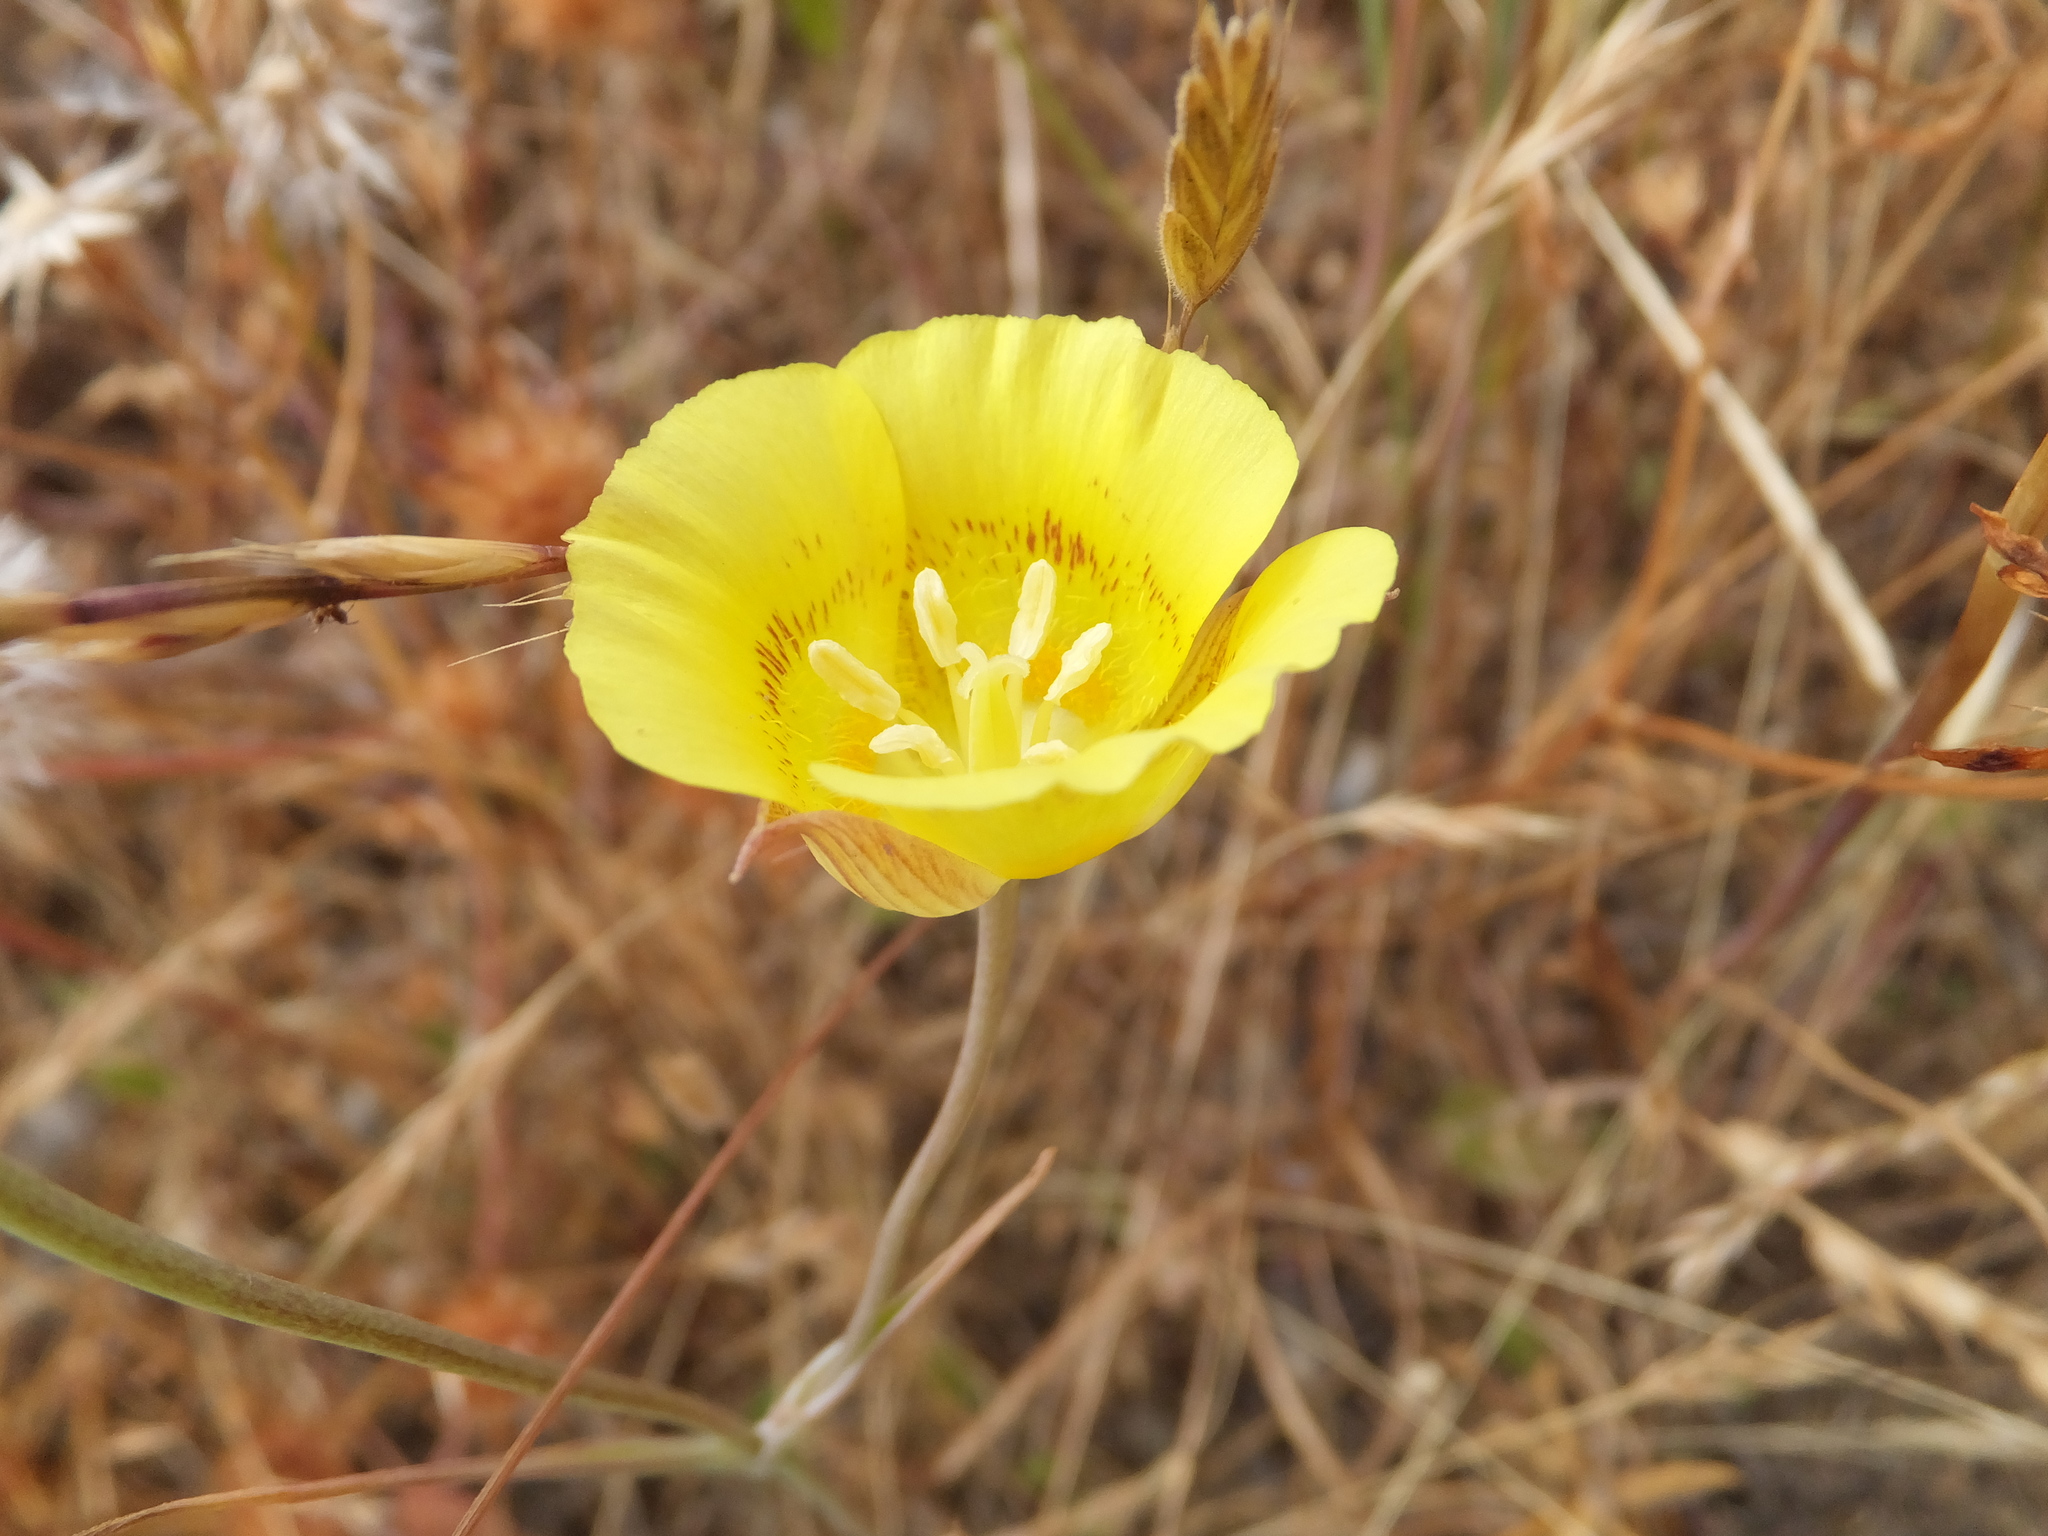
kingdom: Plantae
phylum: Tracheophyta
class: Liliopsida
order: Liliales
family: Liliaceae
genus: Calochortus
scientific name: Calochortus luteus
